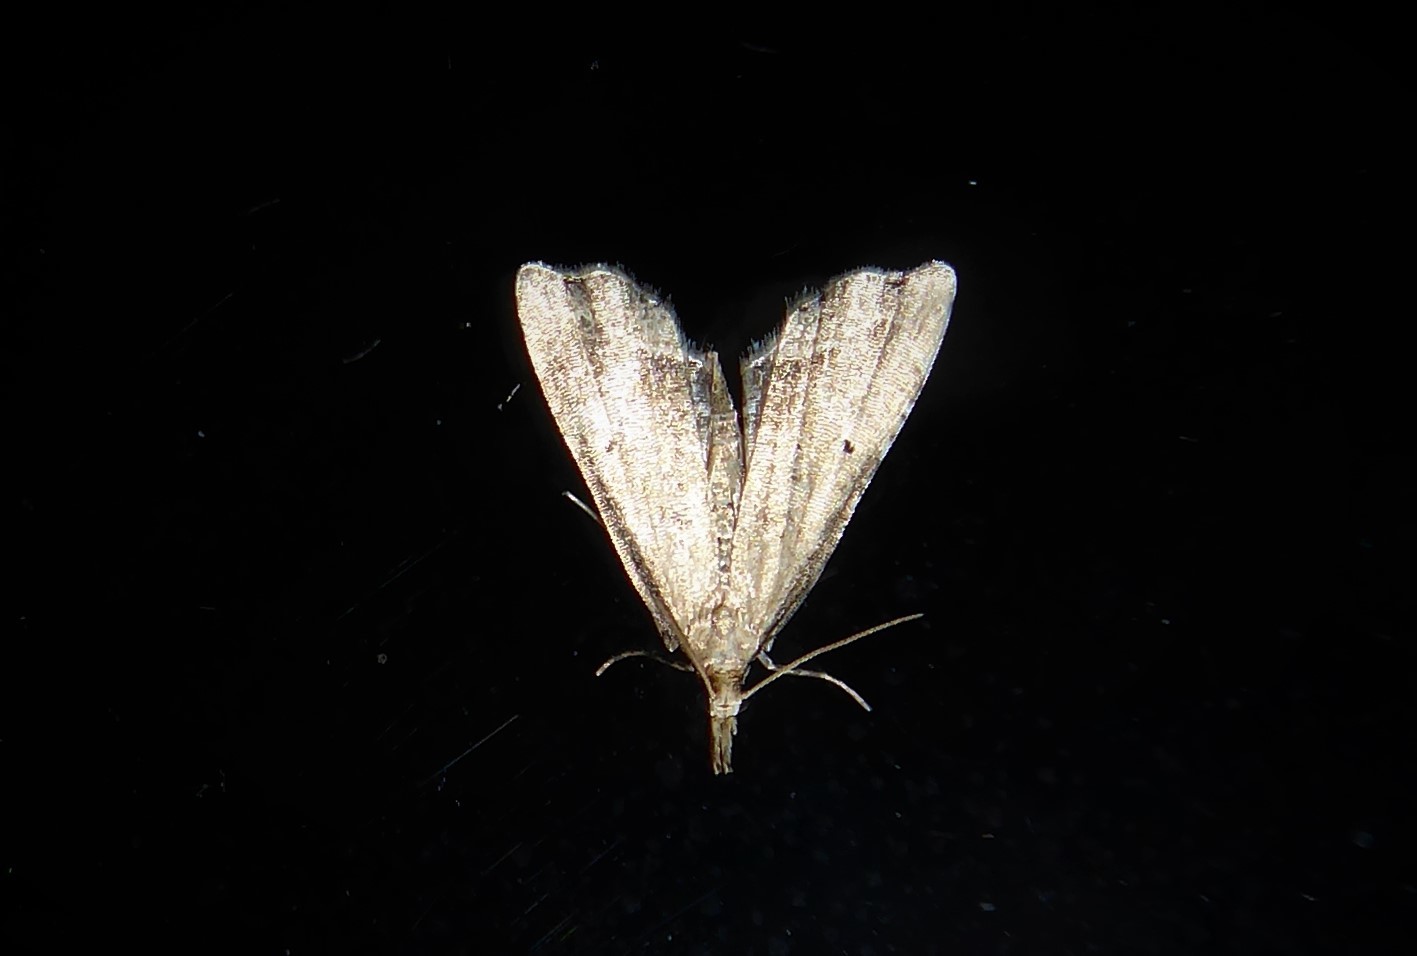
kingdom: Animalia
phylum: Arthropoda
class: Insecta
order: Lepidoptera
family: Crambidae
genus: Diplopseustis
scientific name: Diplopseustis perieresalis
